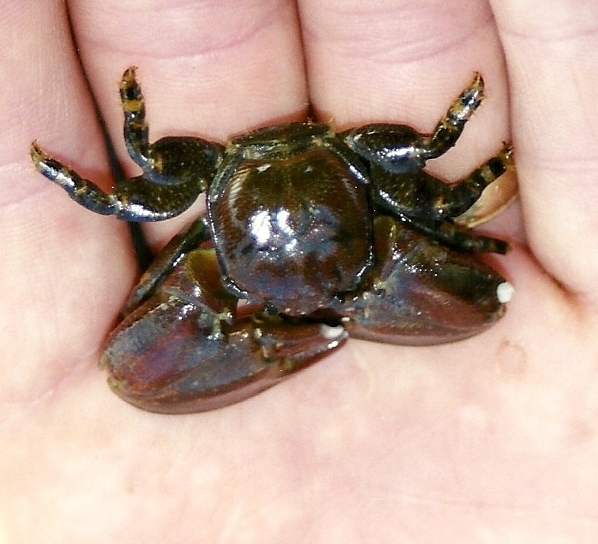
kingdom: Animalia
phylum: Arthropoda
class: Malacostraca
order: Decapoda
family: Porcellanidae
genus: Petrolisthes
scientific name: Petrolisthes cinctipes
